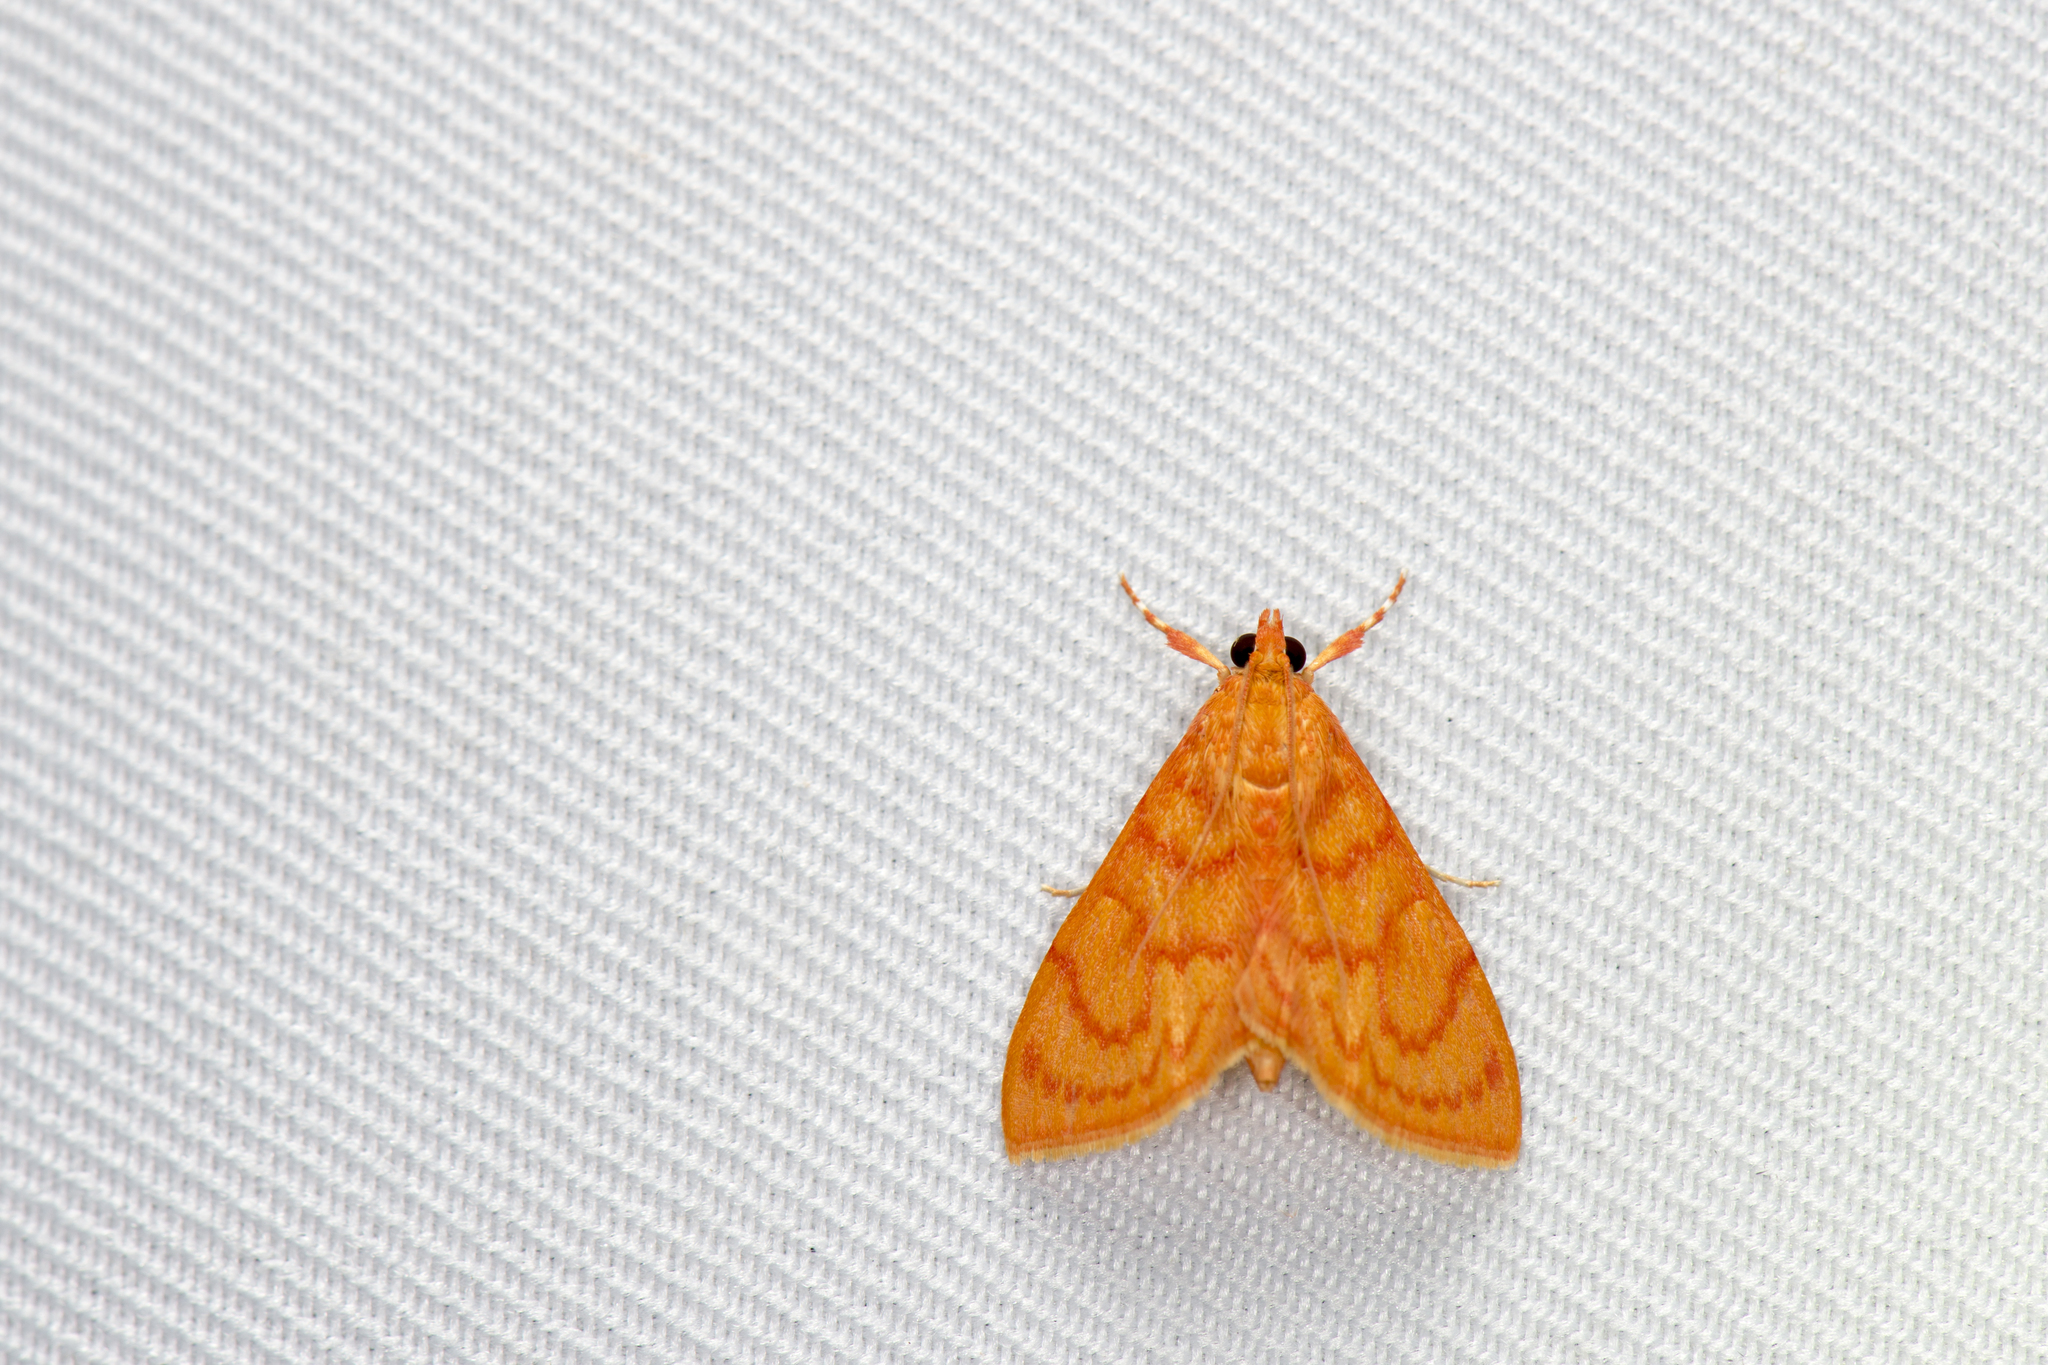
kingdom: Animalia
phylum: Arthropoda
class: Insecta
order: Lepidoptera
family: Crambidae
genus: Hyalobathra
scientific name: Hyalobathra miniosalis
